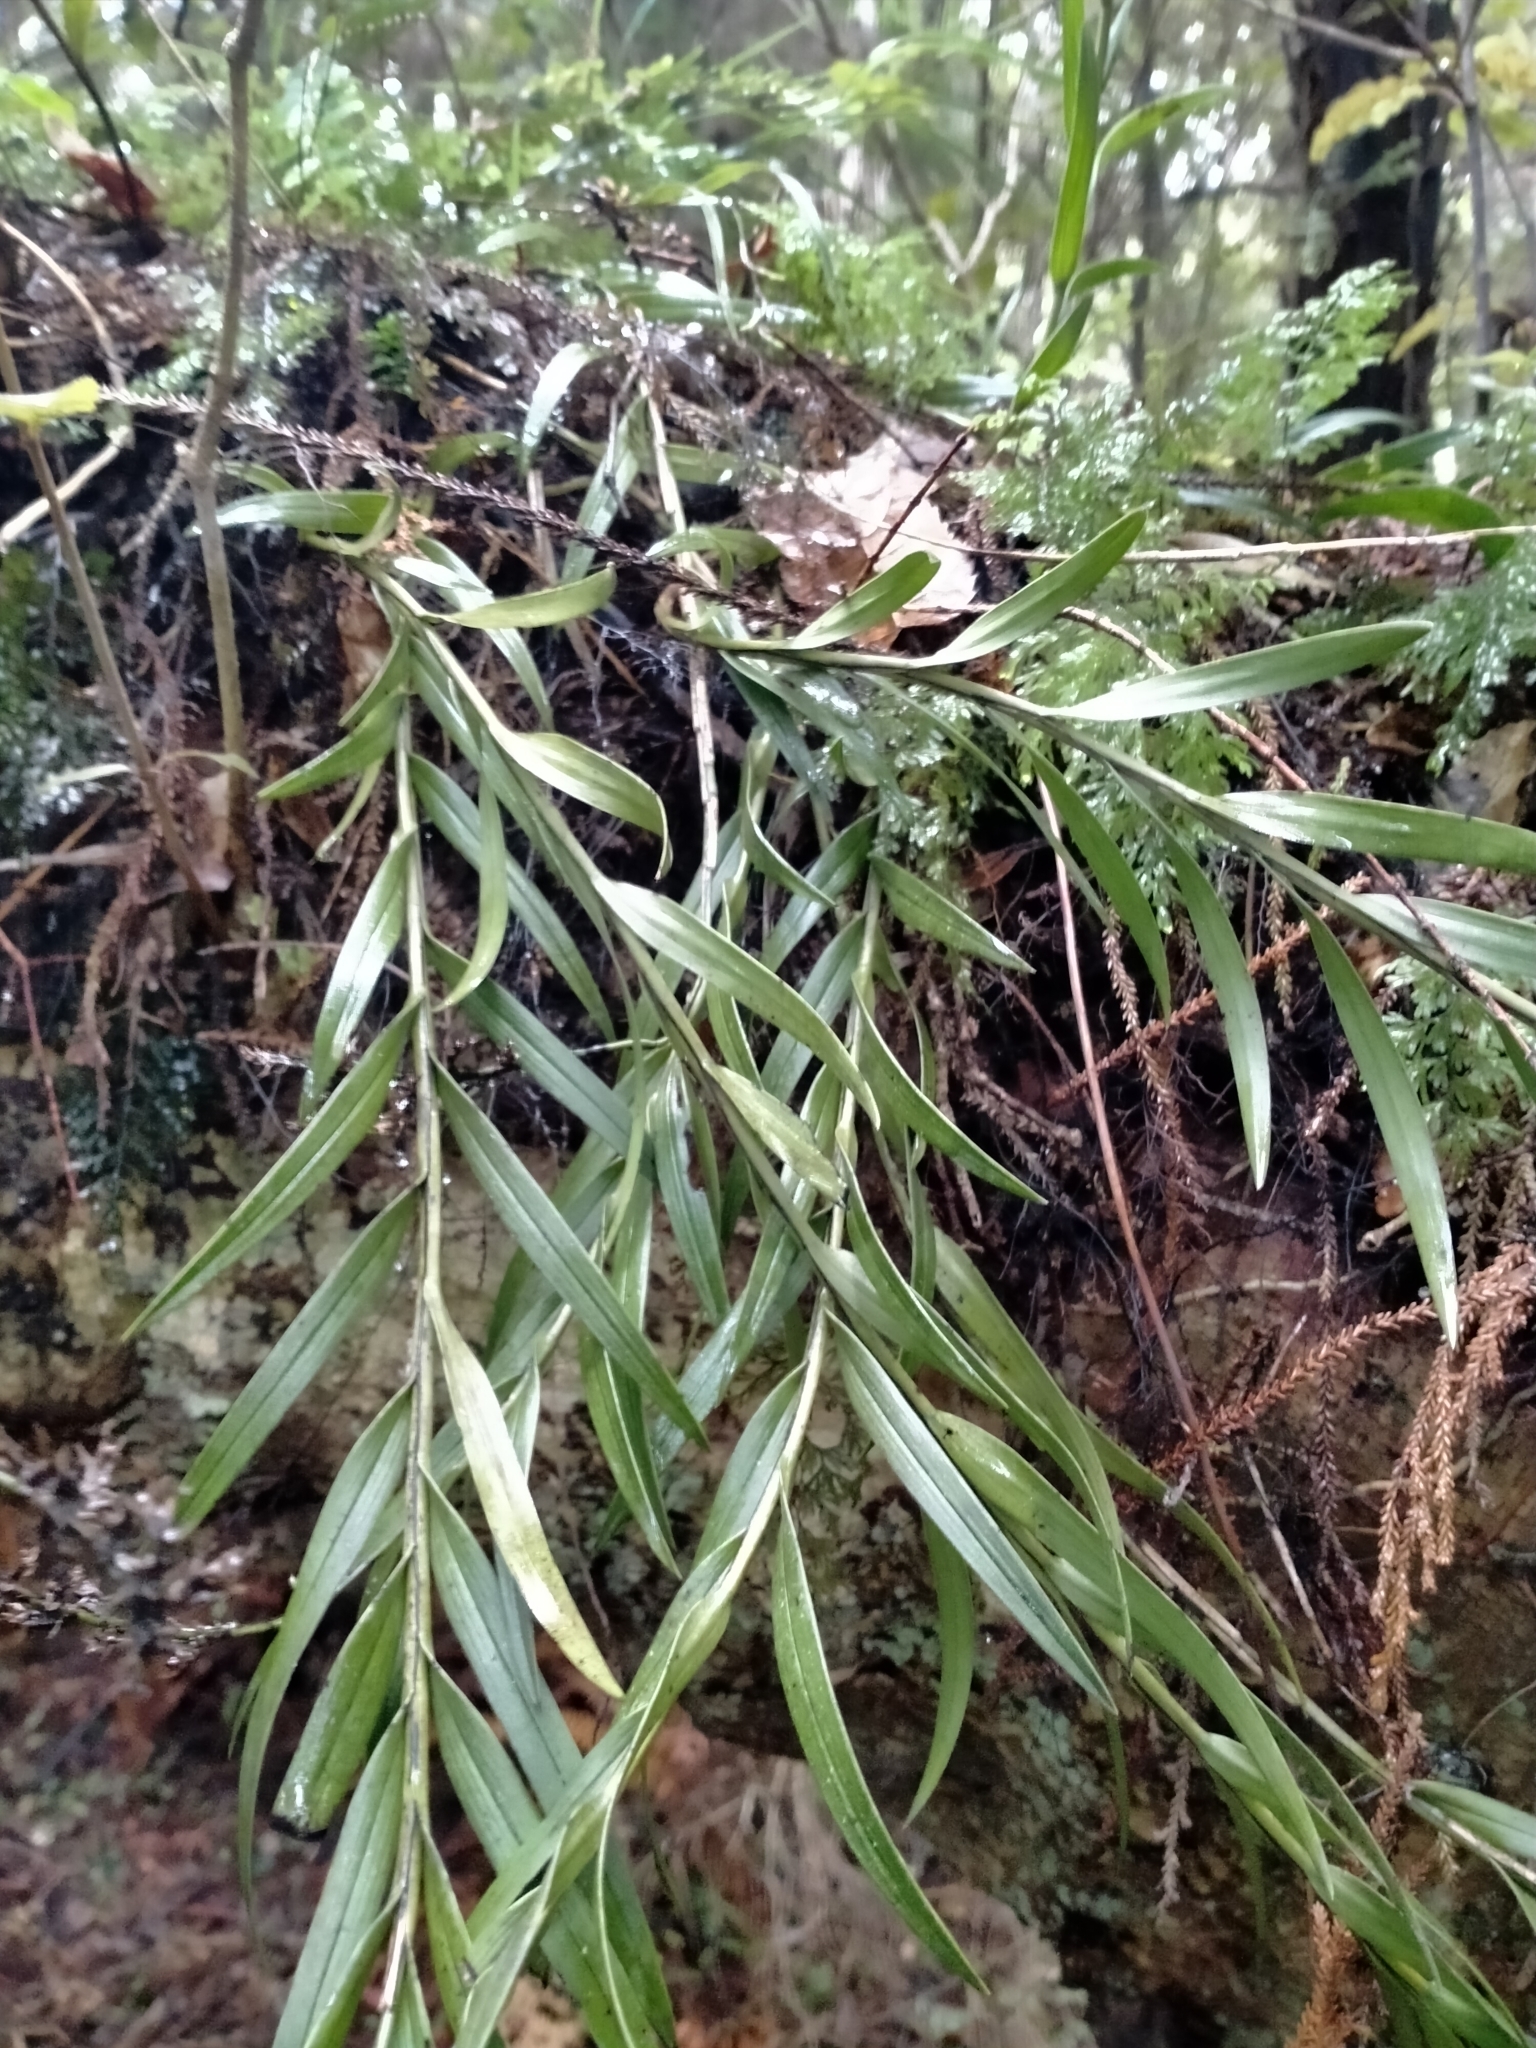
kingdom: Plantae
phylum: Tracheophyta
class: Liliopsida
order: Asparagales
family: Orchidaceae
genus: Earina
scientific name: Earina autumnalis
